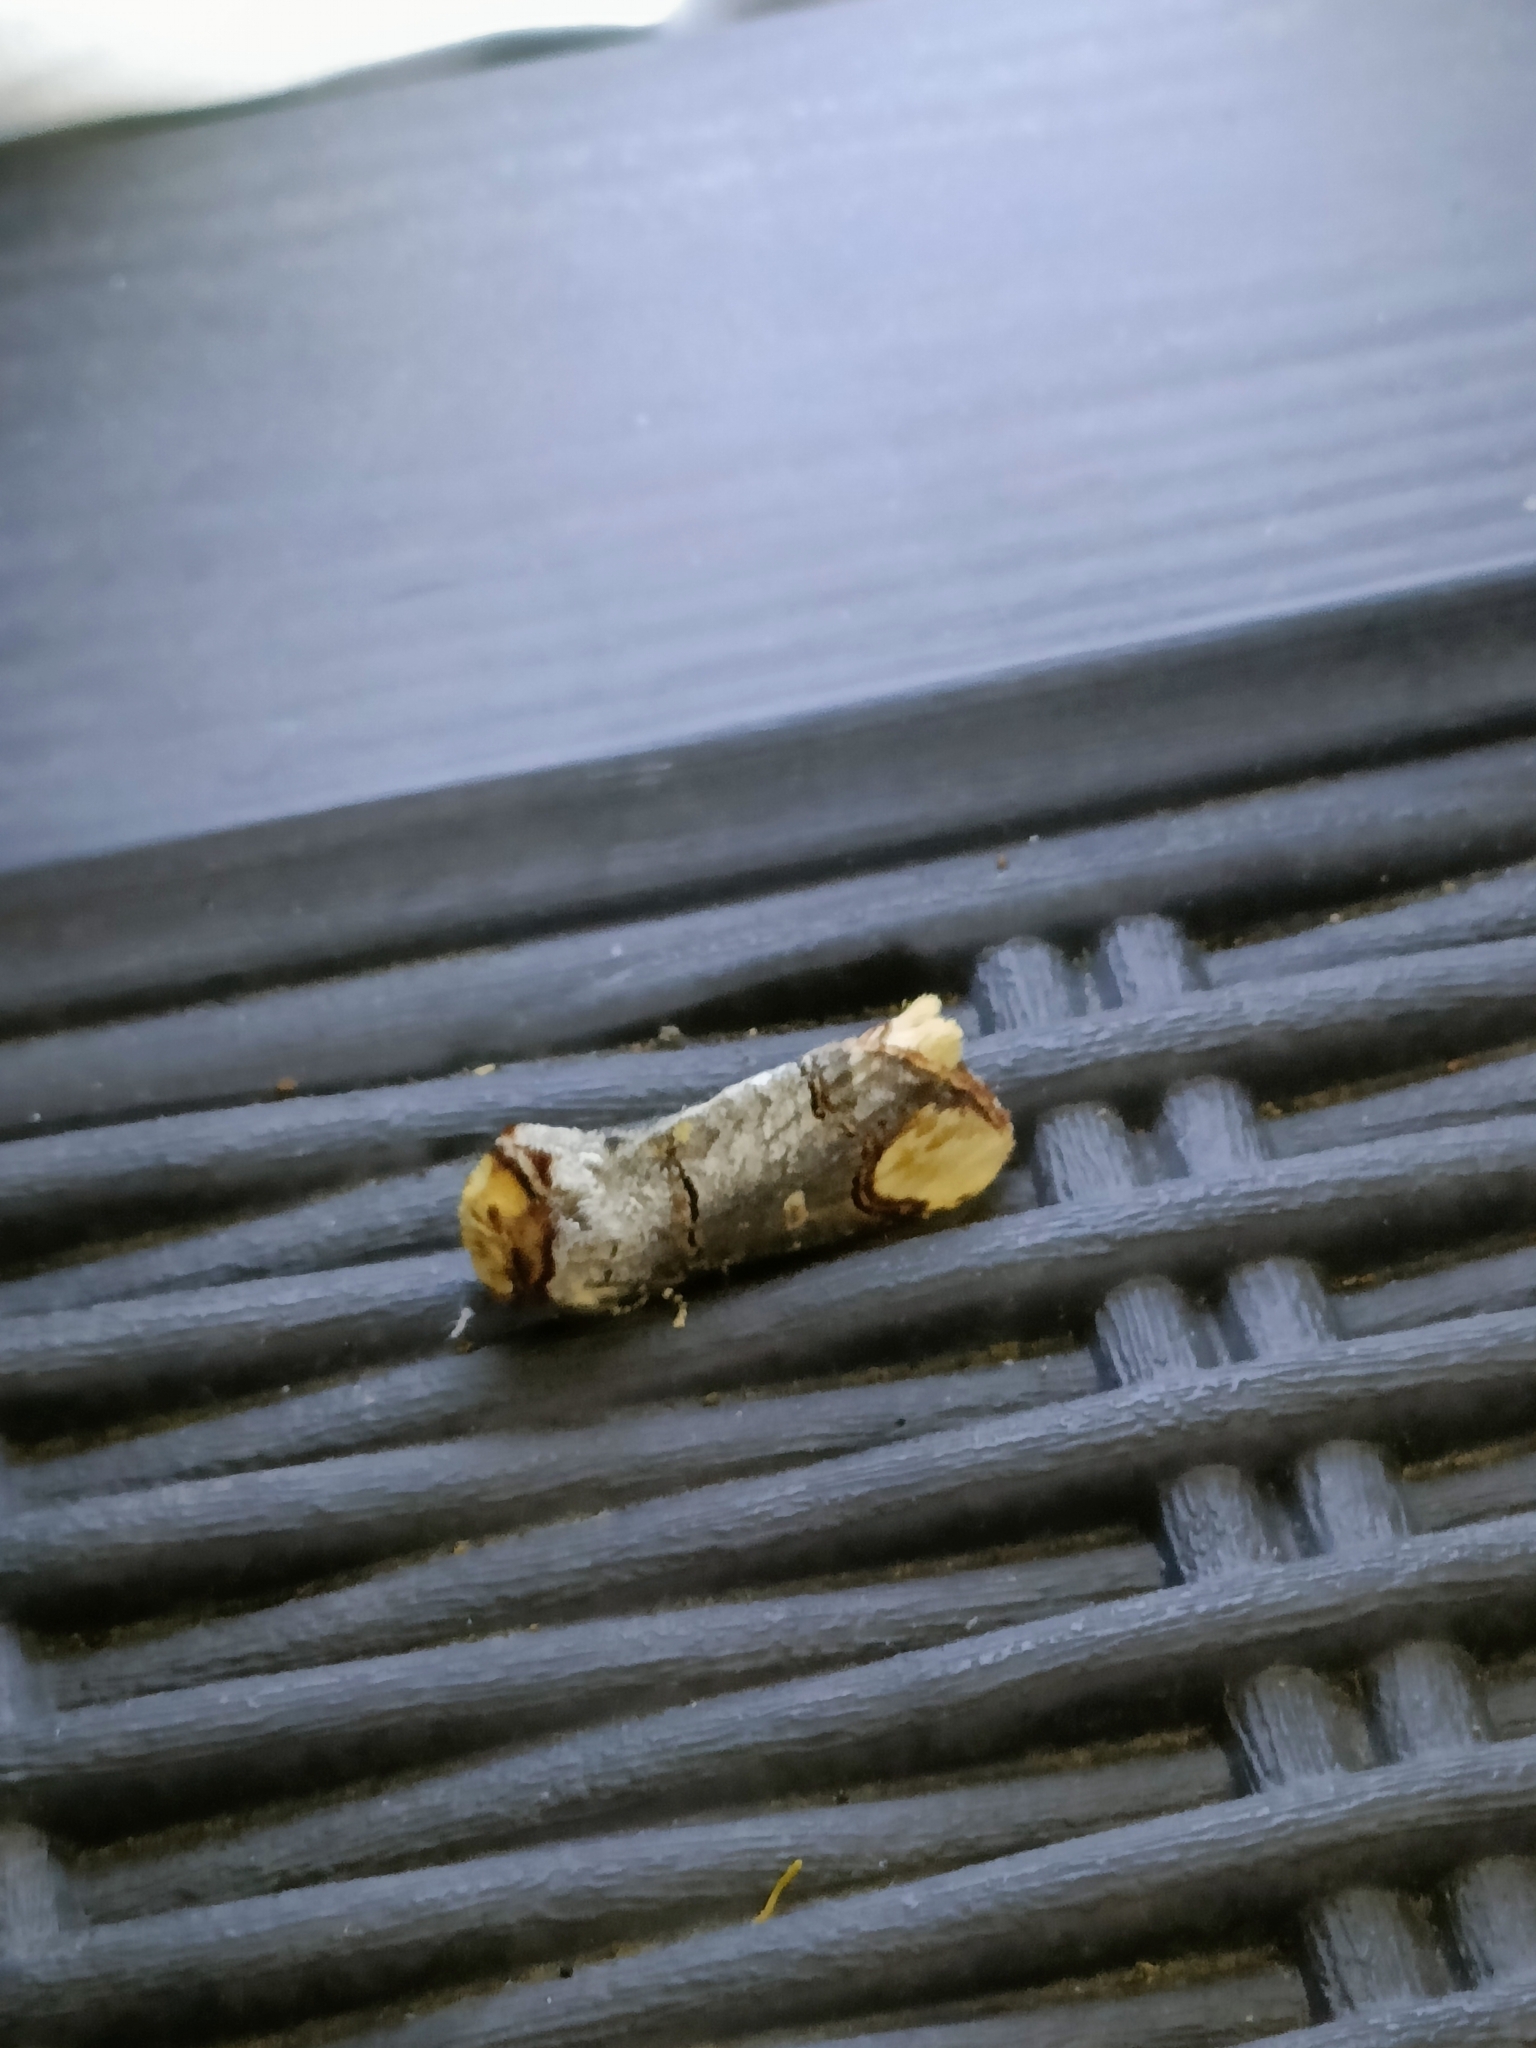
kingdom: Animalia
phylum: Arthropoda
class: Insecta
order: Lepidoptera
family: Notodontidae
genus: Phalera
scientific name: Phalera bucephala
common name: Buff-tip
